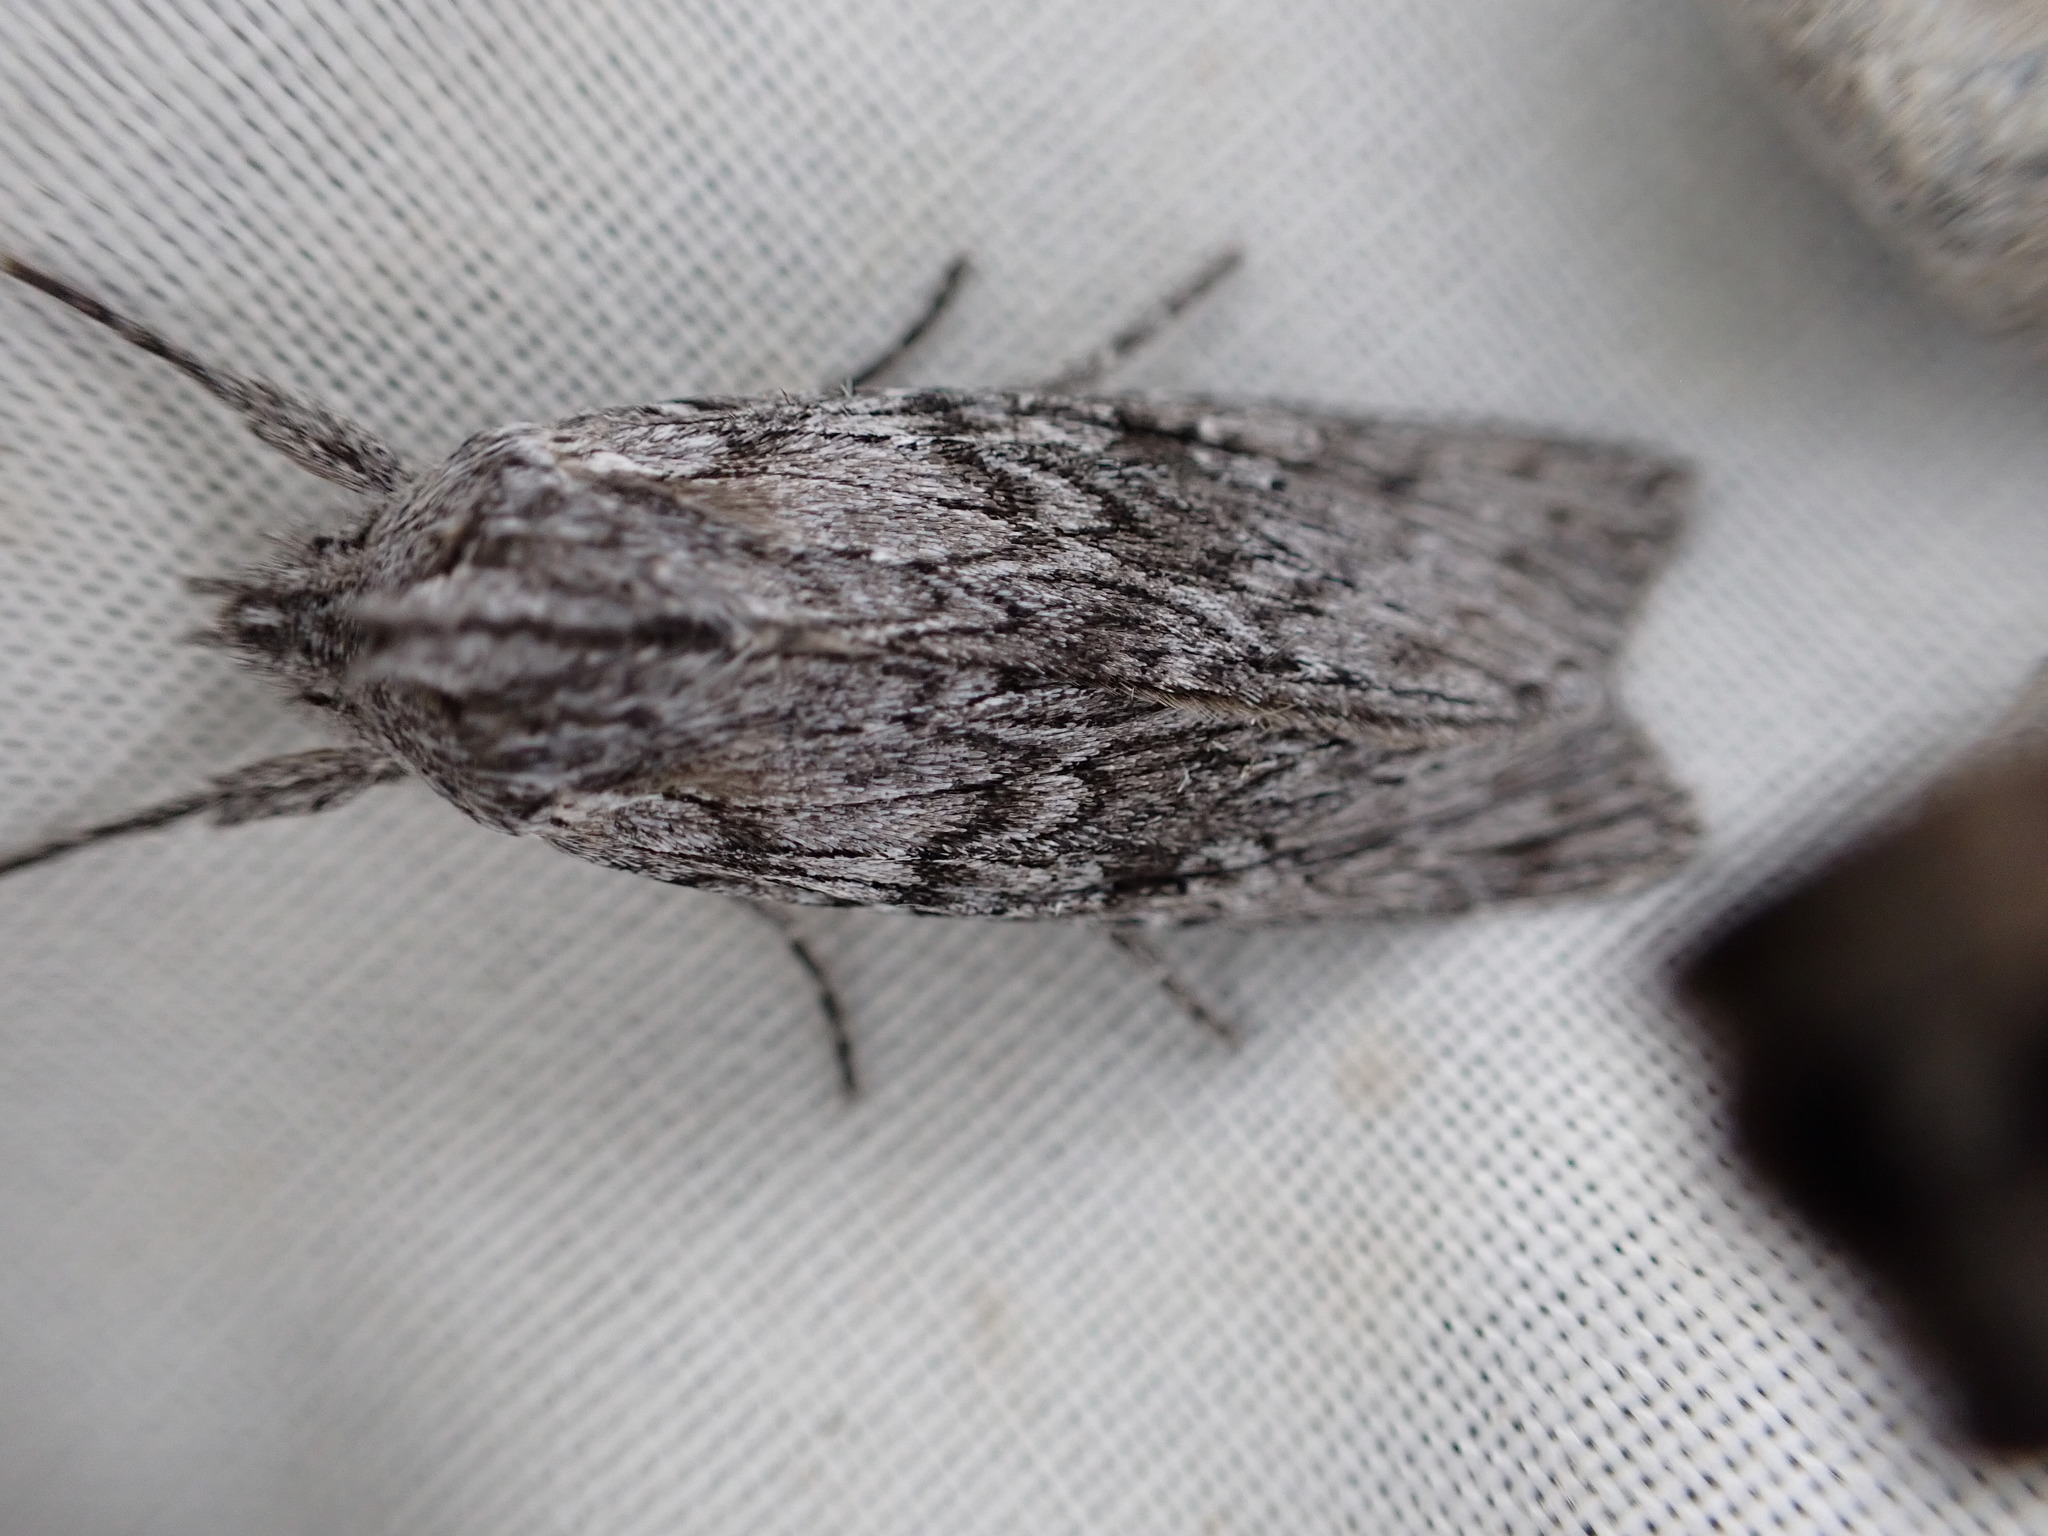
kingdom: Animalia
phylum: Arthropoda
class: Insecta
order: Lepidoptera
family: Noctuidae
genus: Physetica
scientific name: Physetica phricias
